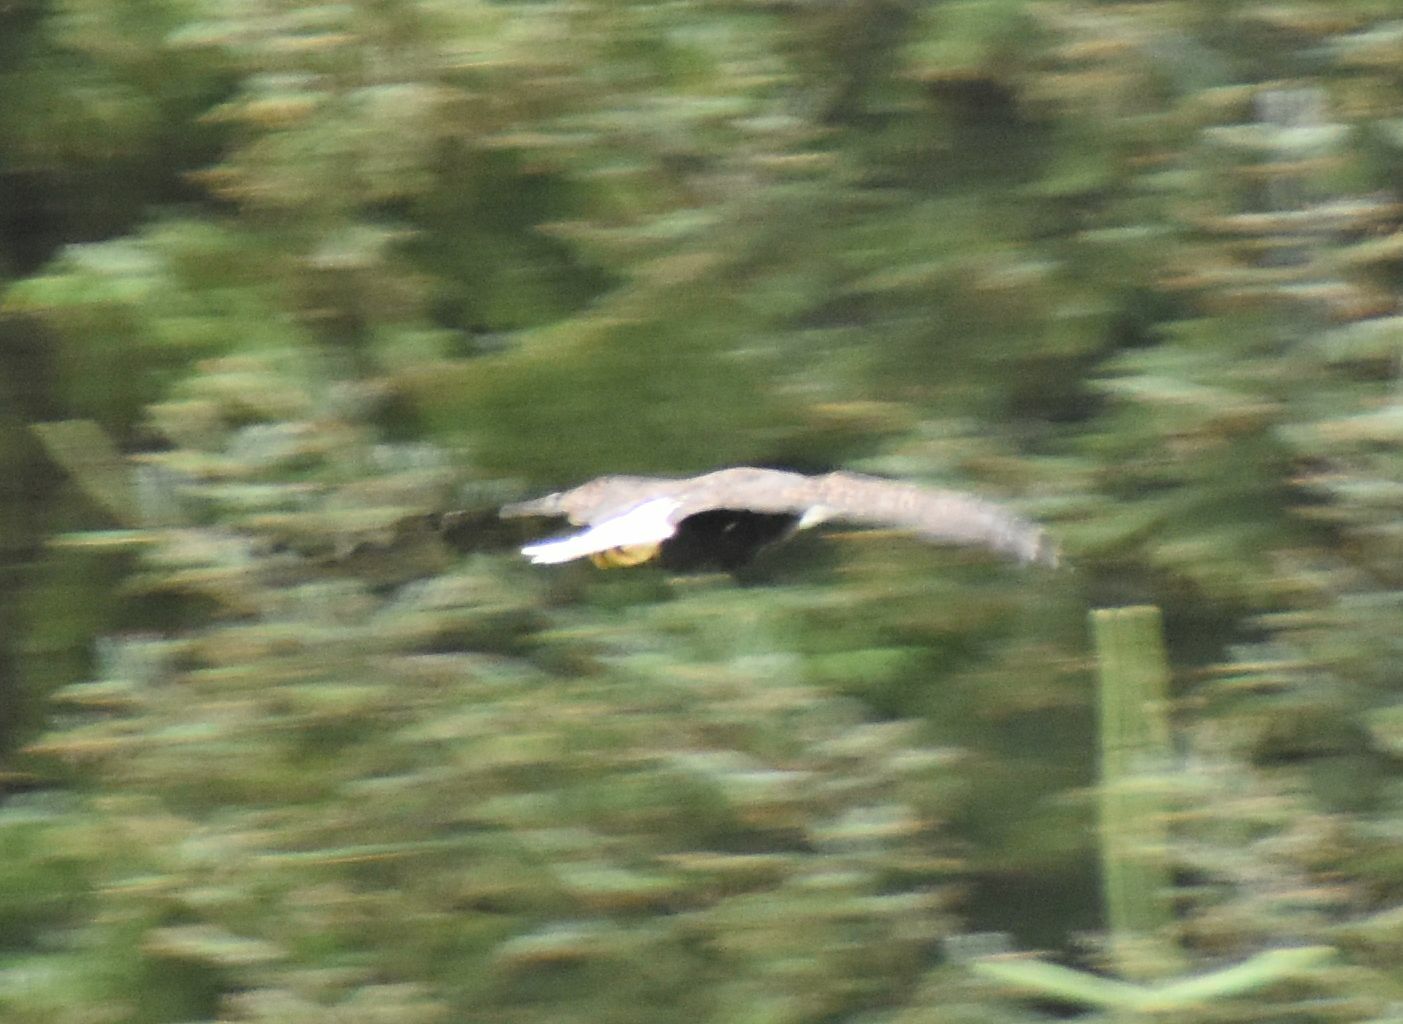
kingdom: Animalia
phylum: Chordata
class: Aves
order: Accipitriformes
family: Accipitridae
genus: Haliaeetus
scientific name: Haliaeetus leucocephalus
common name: Bald eagle
